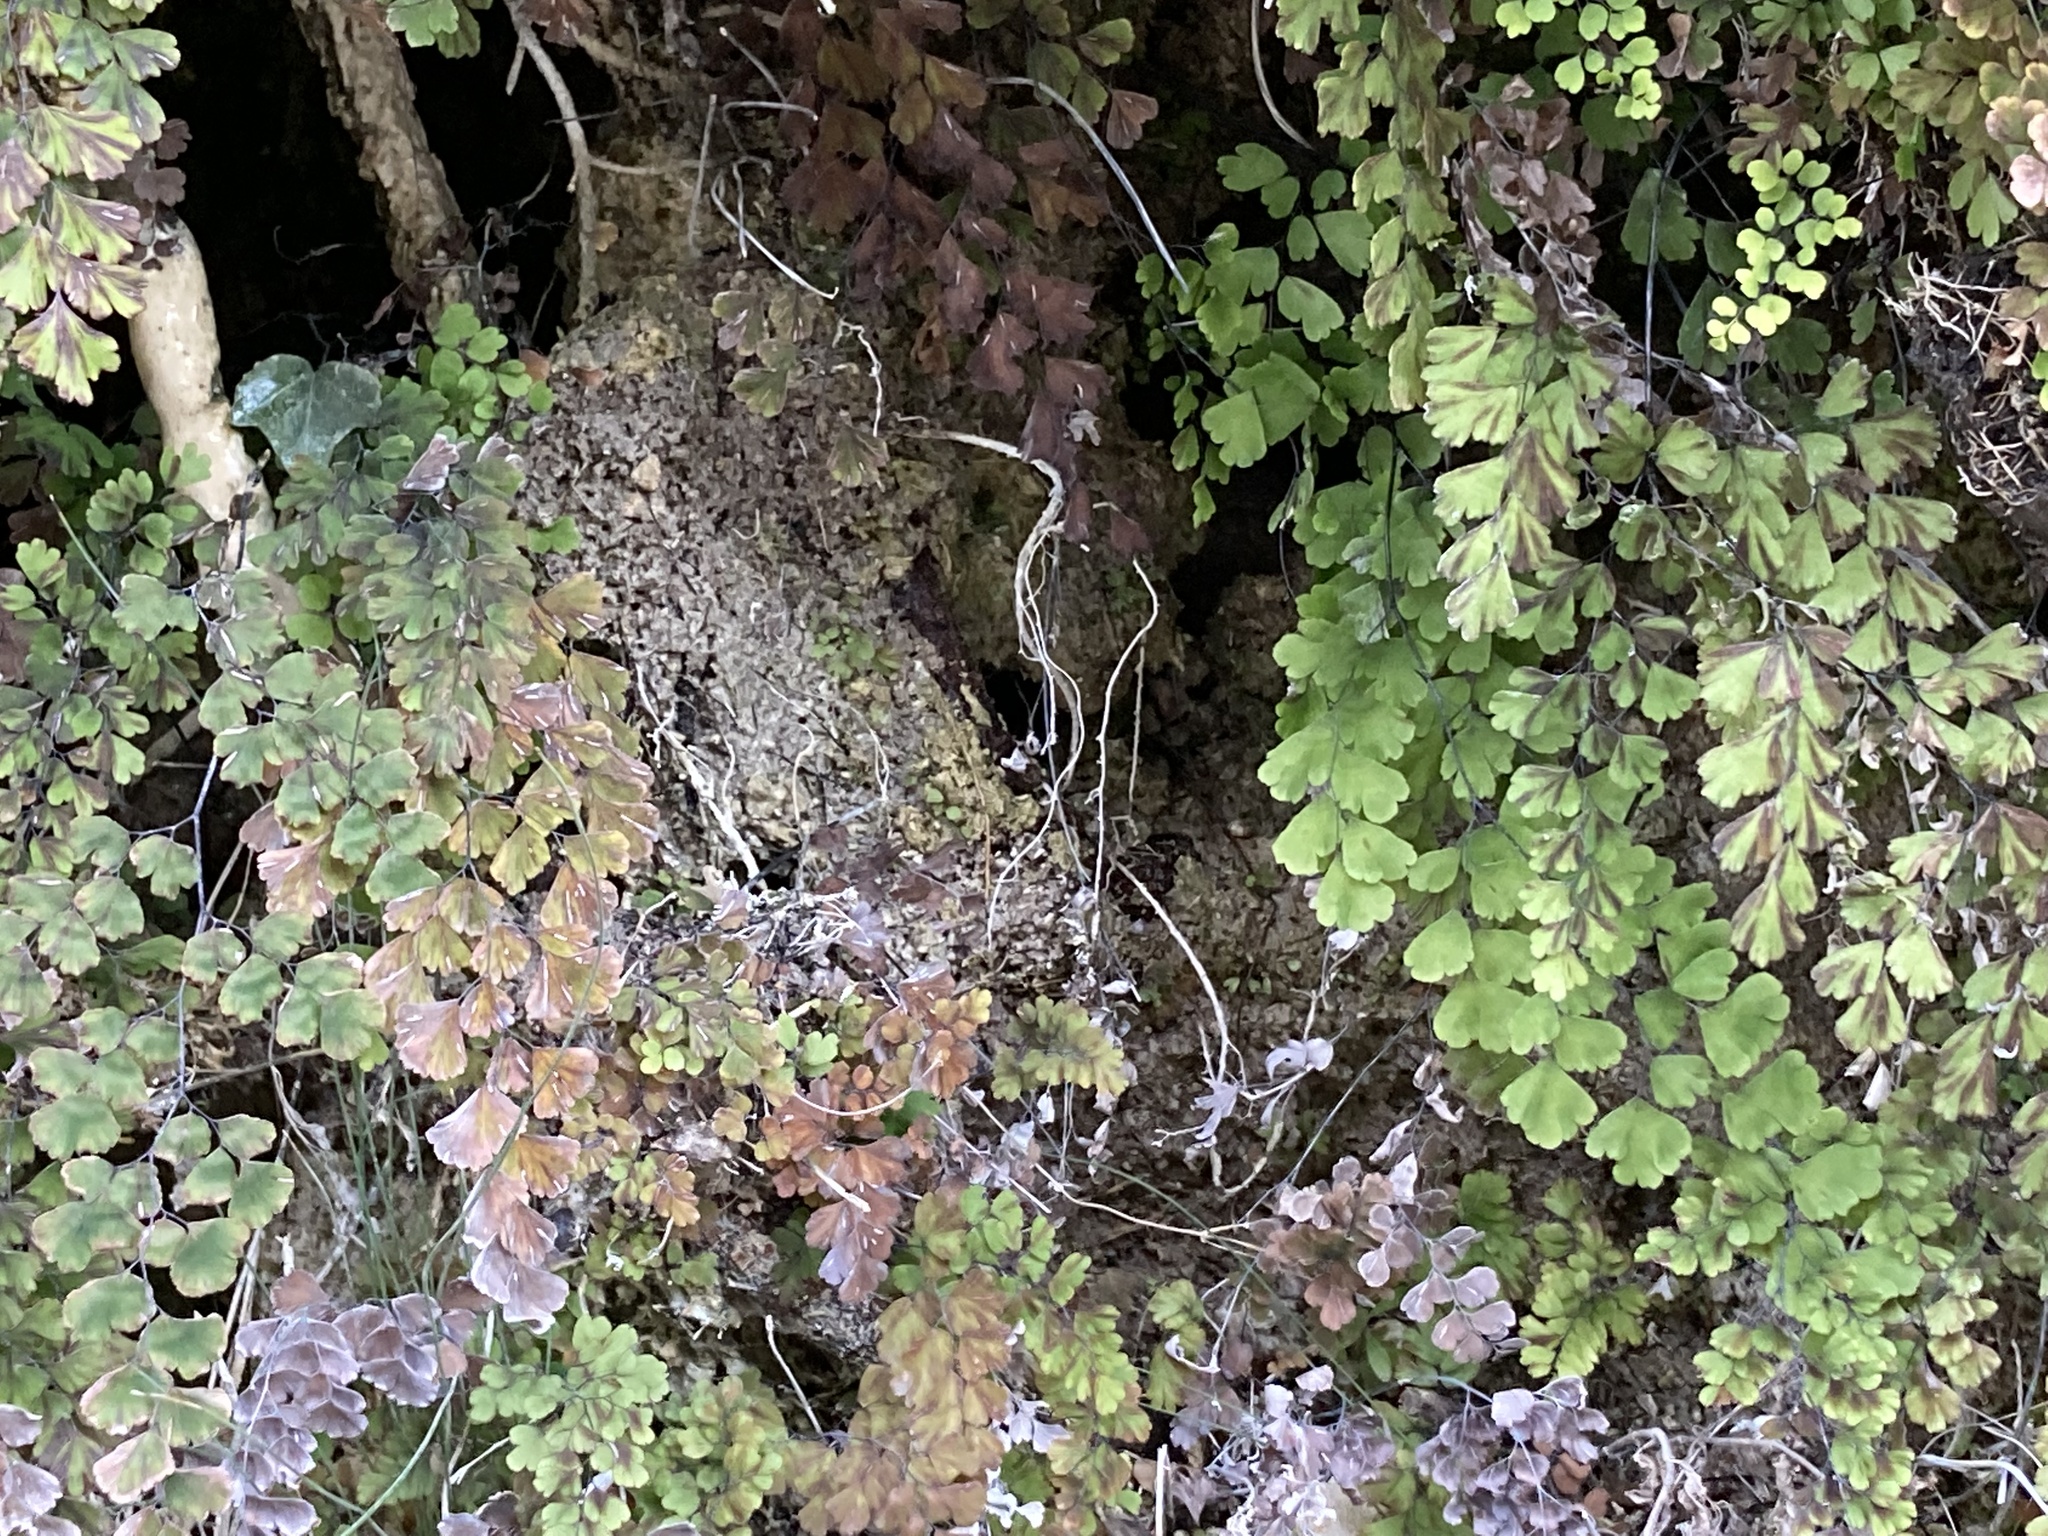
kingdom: Plantae
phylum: Tracheophyta
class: Polypodiopsida
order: Polypodiales
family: Pteridaceae
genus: Adiantum
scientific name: Adiantum capillus-veneris
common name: Maidenhair fern
